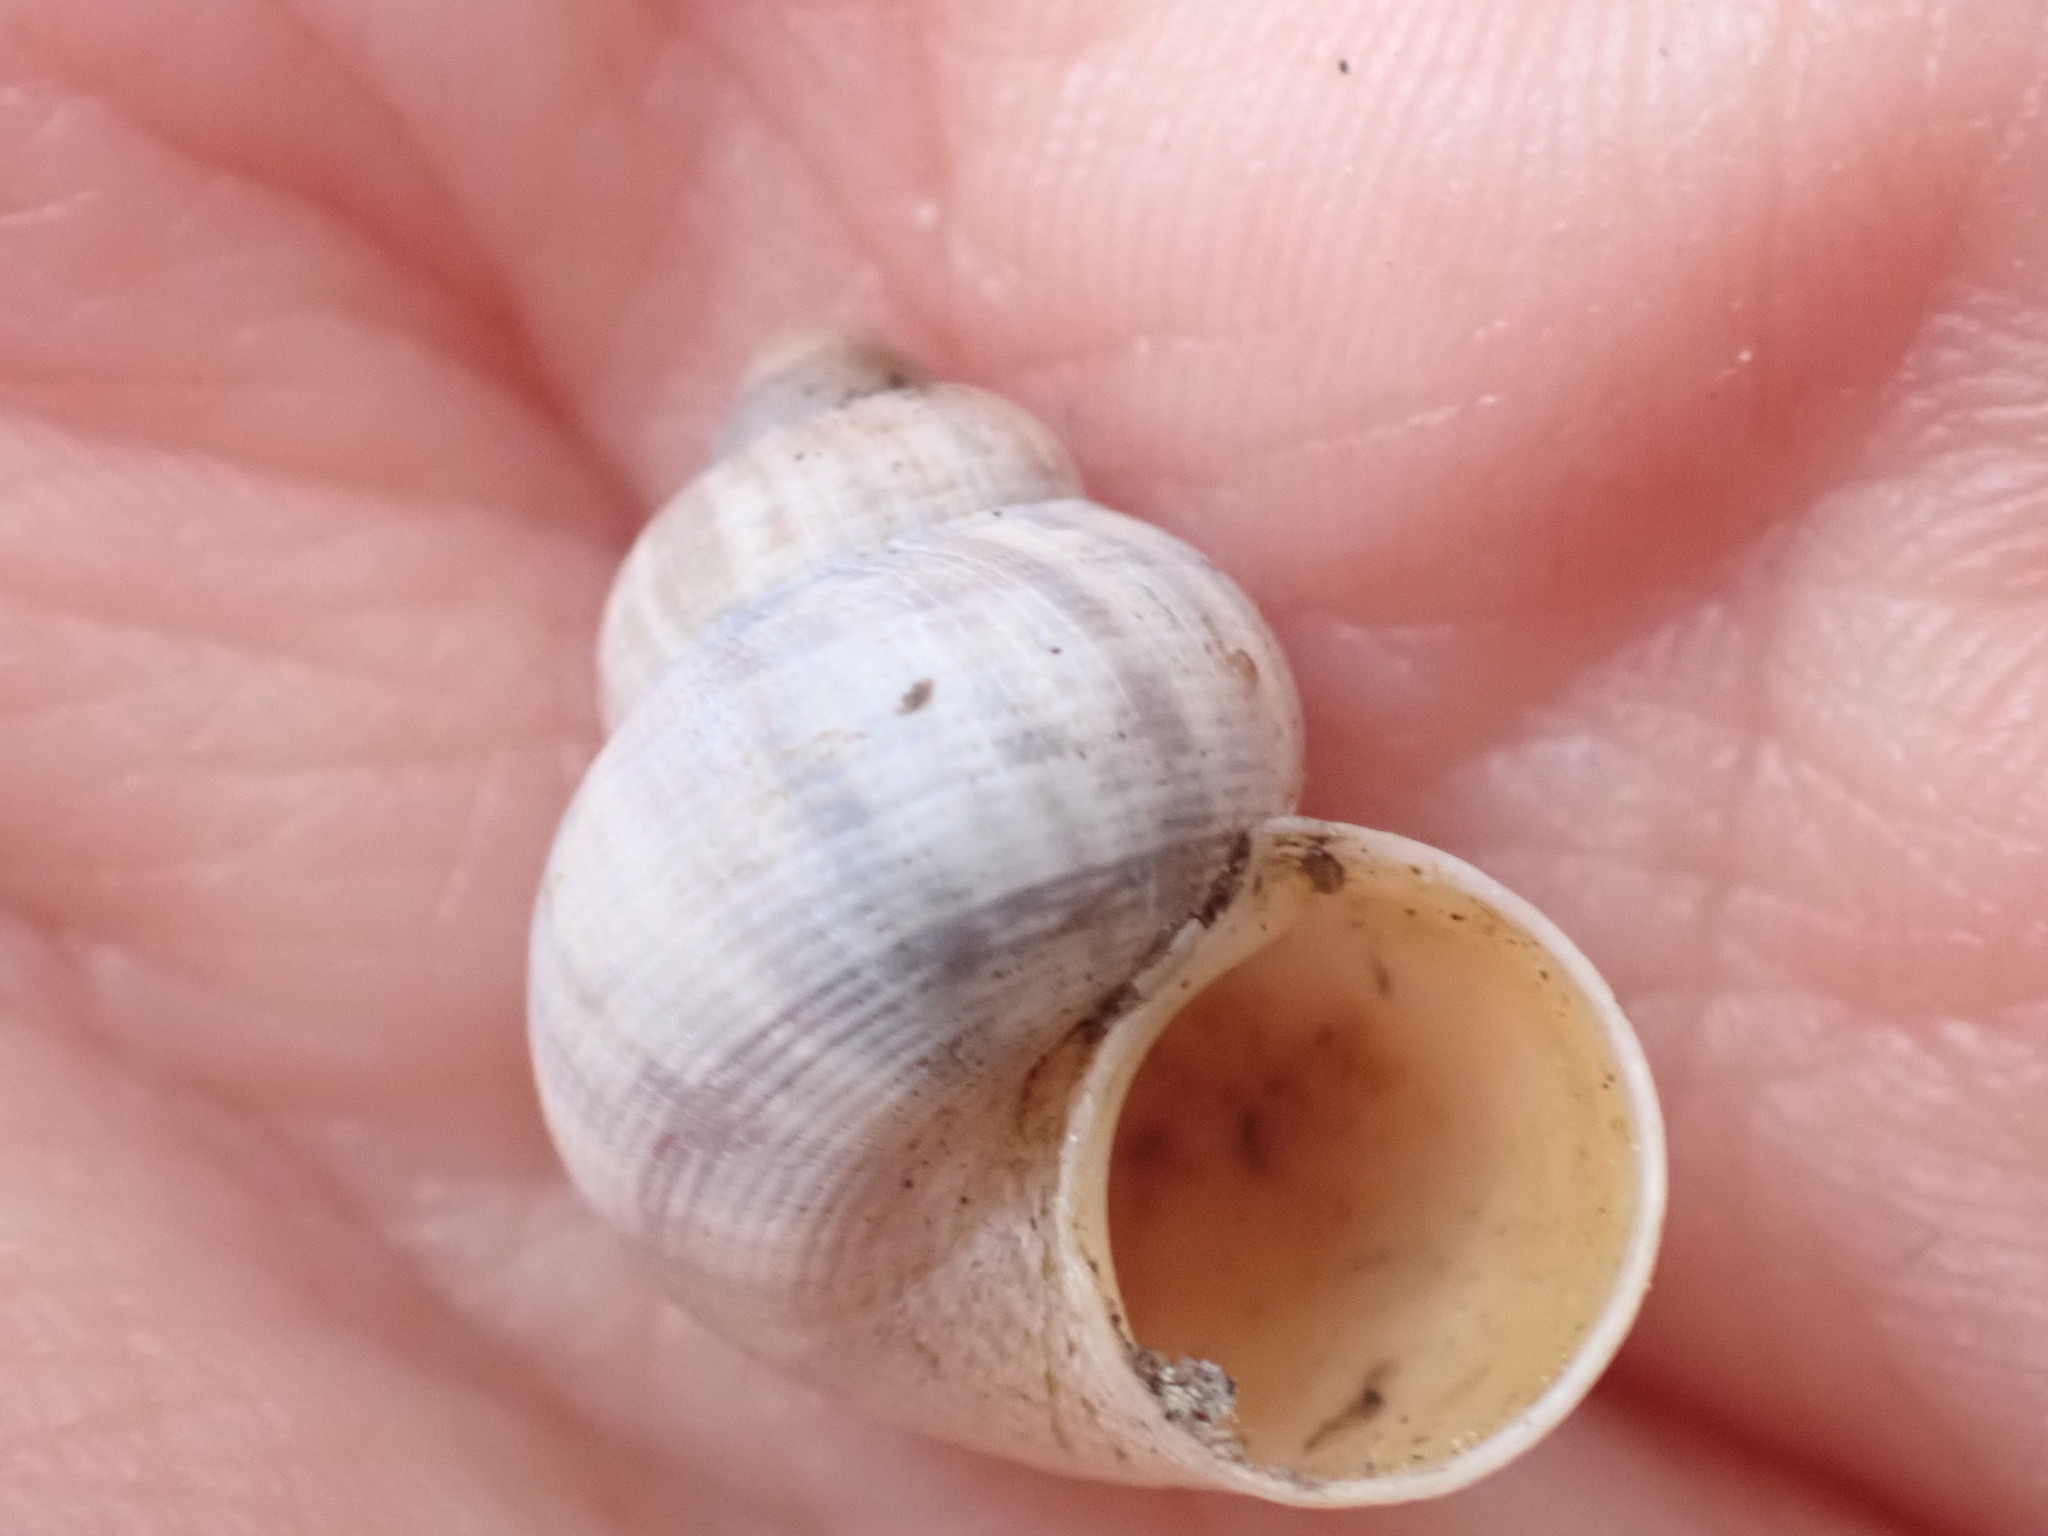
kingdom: Animalia
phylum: Mollusca
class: Gastropoda
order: Littorinimorpha
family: Pomatiidae
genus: Pomatias
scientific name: Pomatias elegans
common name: Red-mouthed snail
